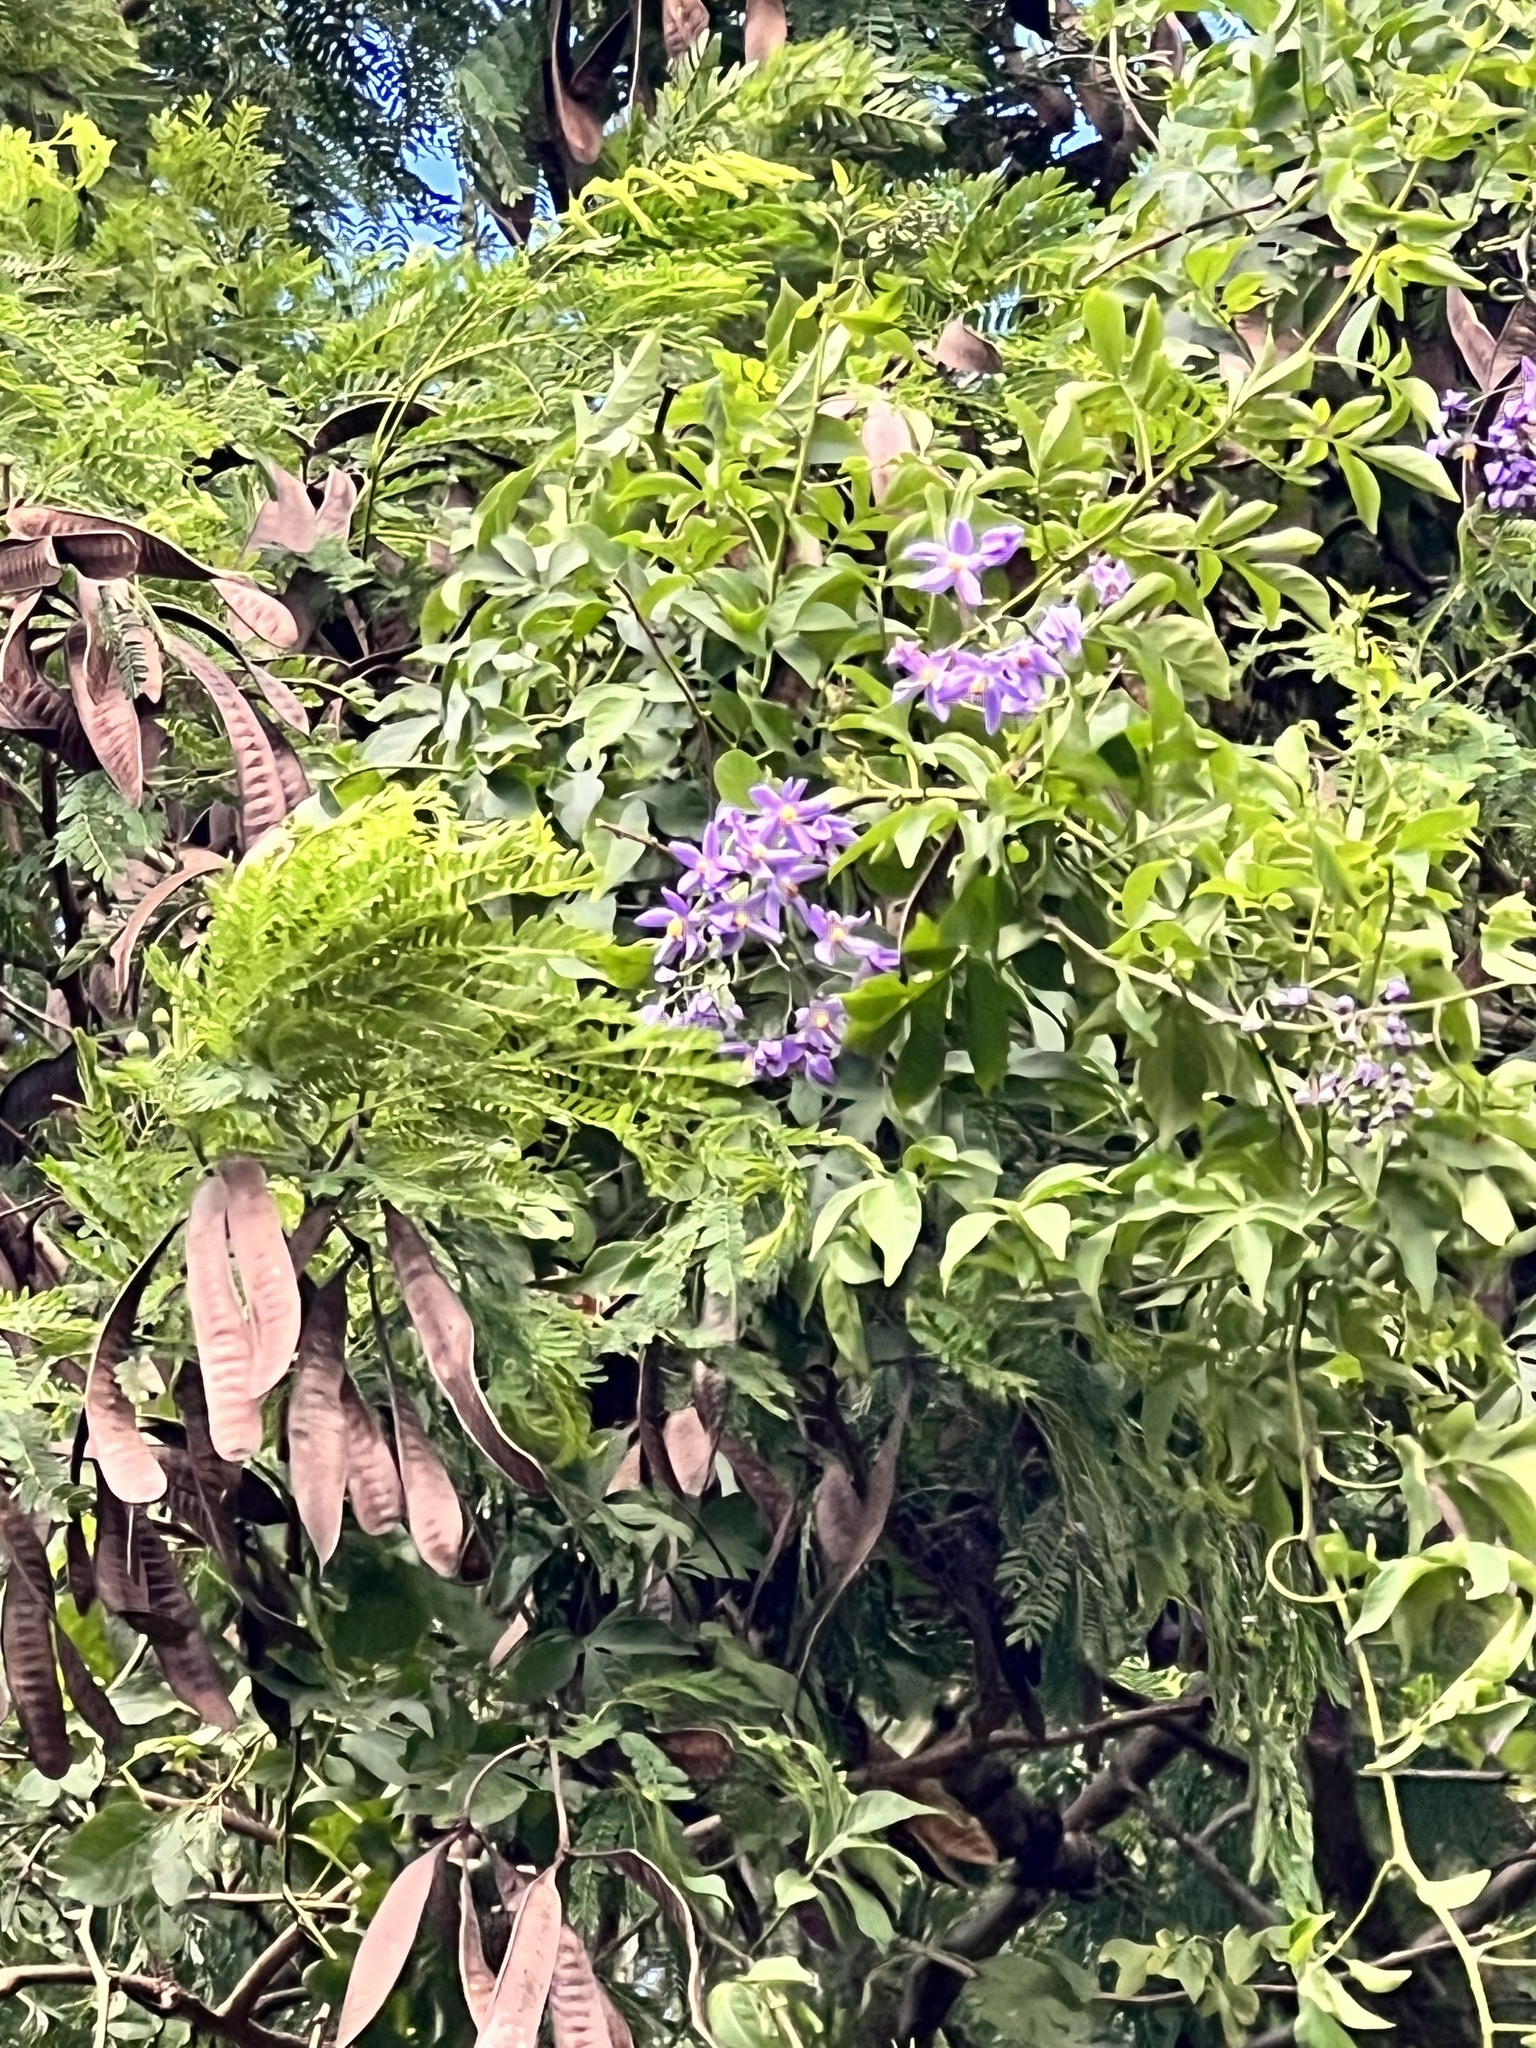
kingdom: Plantae
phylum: Tracheophyta
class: Magnoliopsida
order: Solanales
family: Solanaceae
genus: Solanum
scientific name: Solanum seaforthianum
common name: Brazilian nightshade
